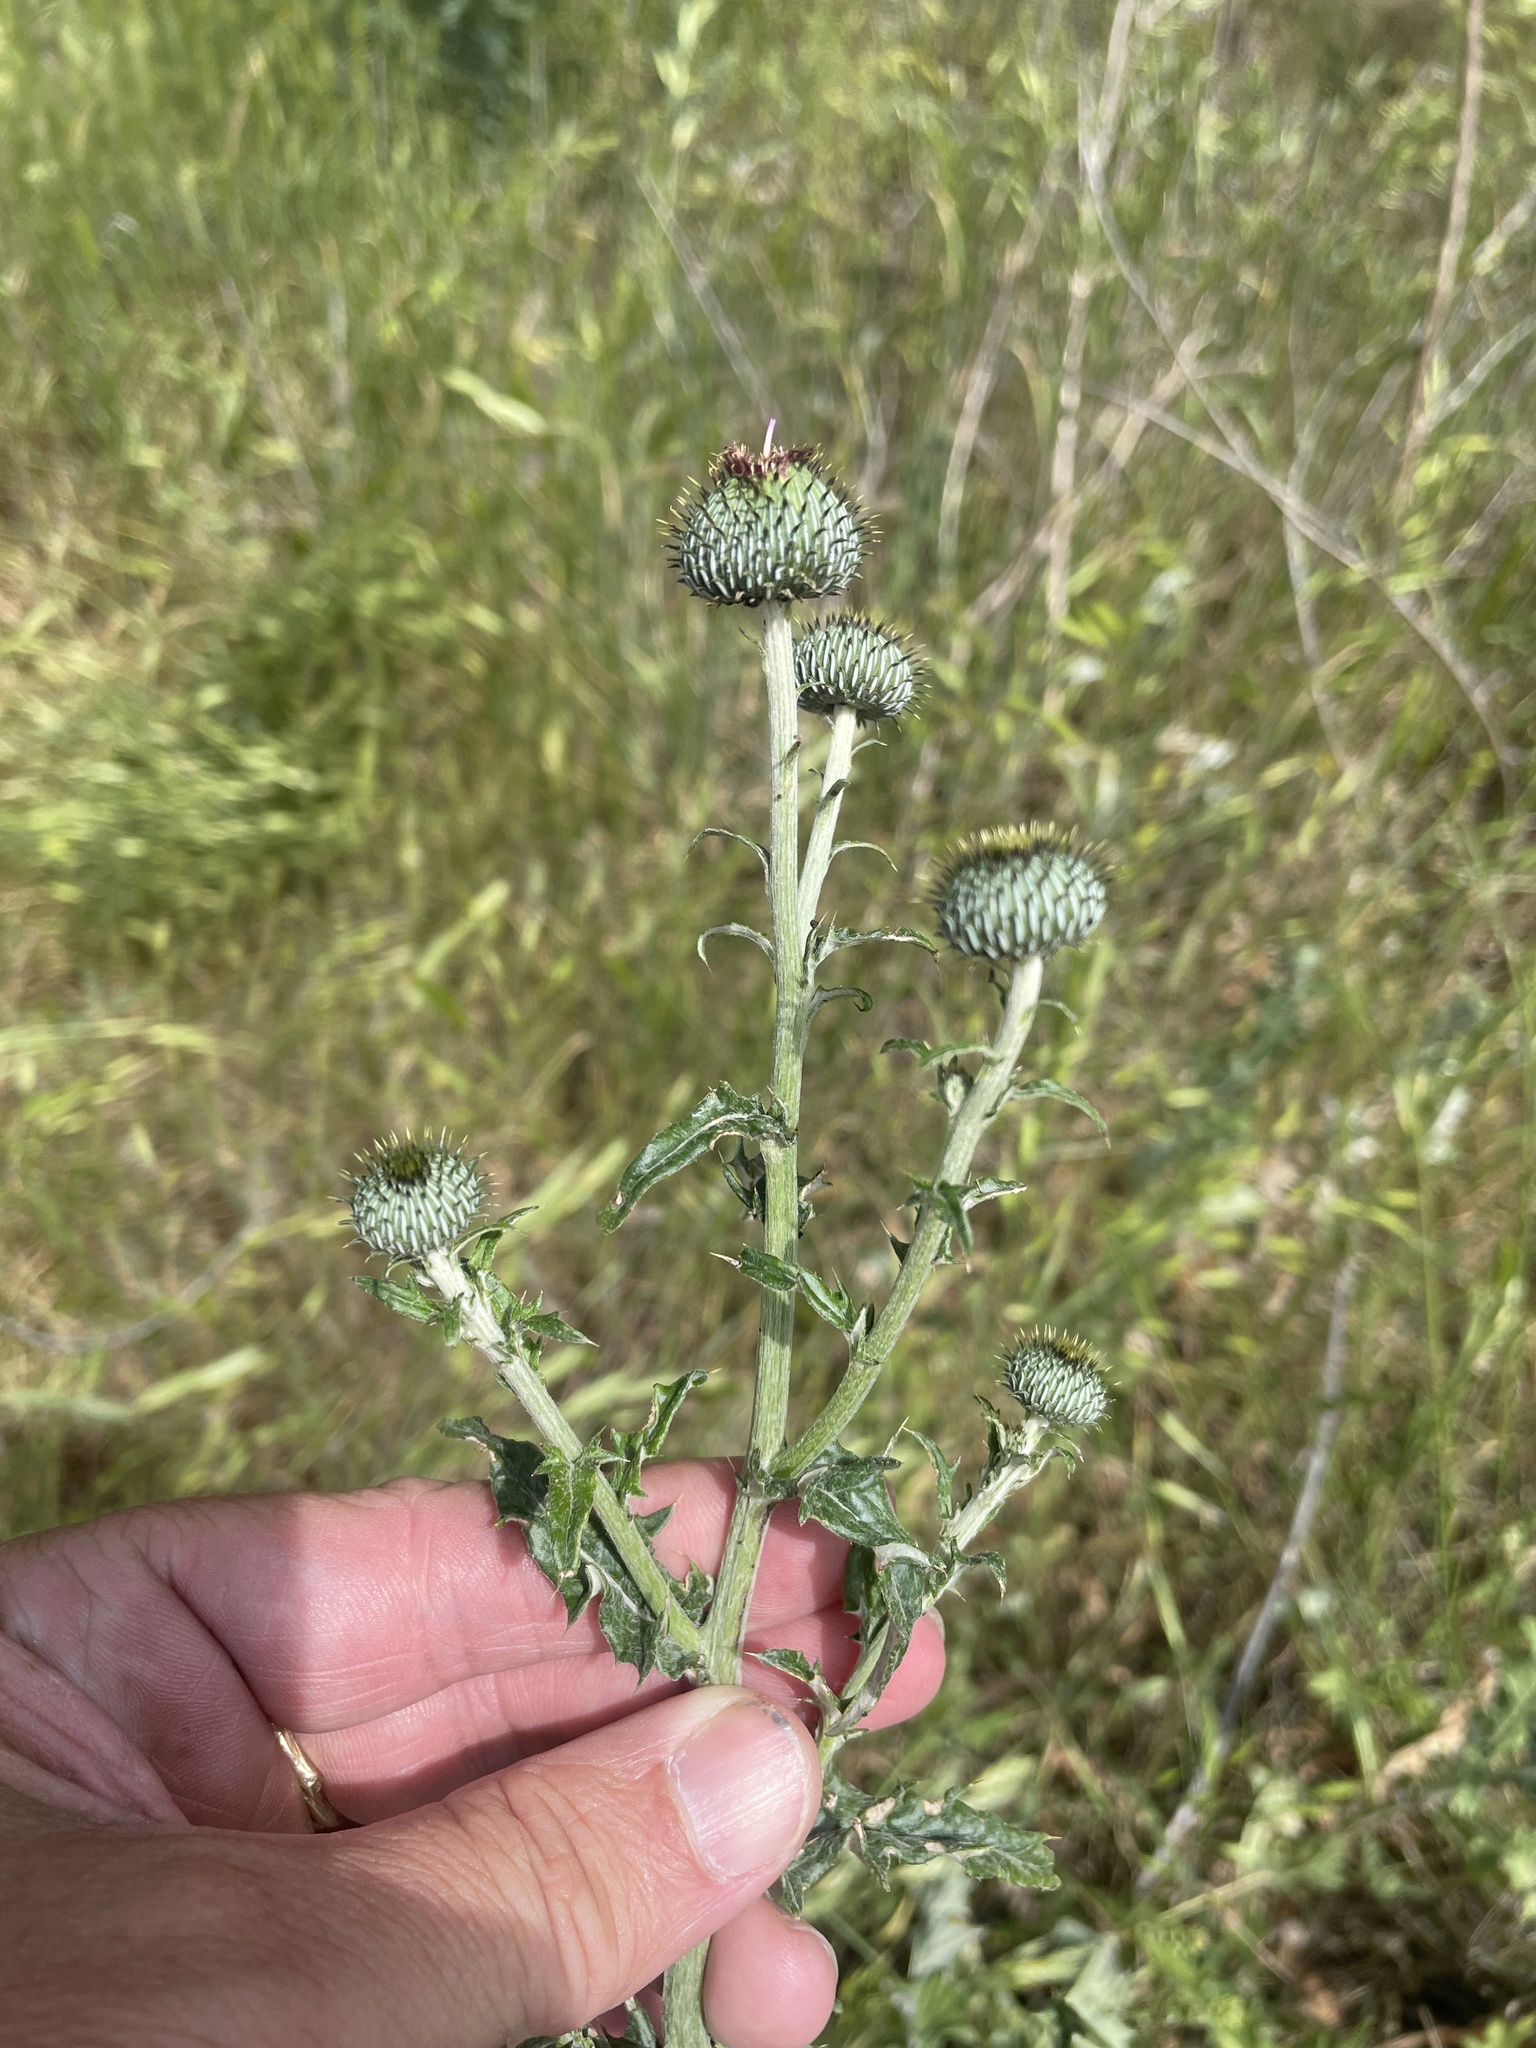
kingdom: Plantae
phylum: Tracheophyta
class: Magnoliopsida
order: Asterales
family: Asteraceae
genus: Cirsium
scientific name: Cirsium texanum
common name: Texas purple thistle
